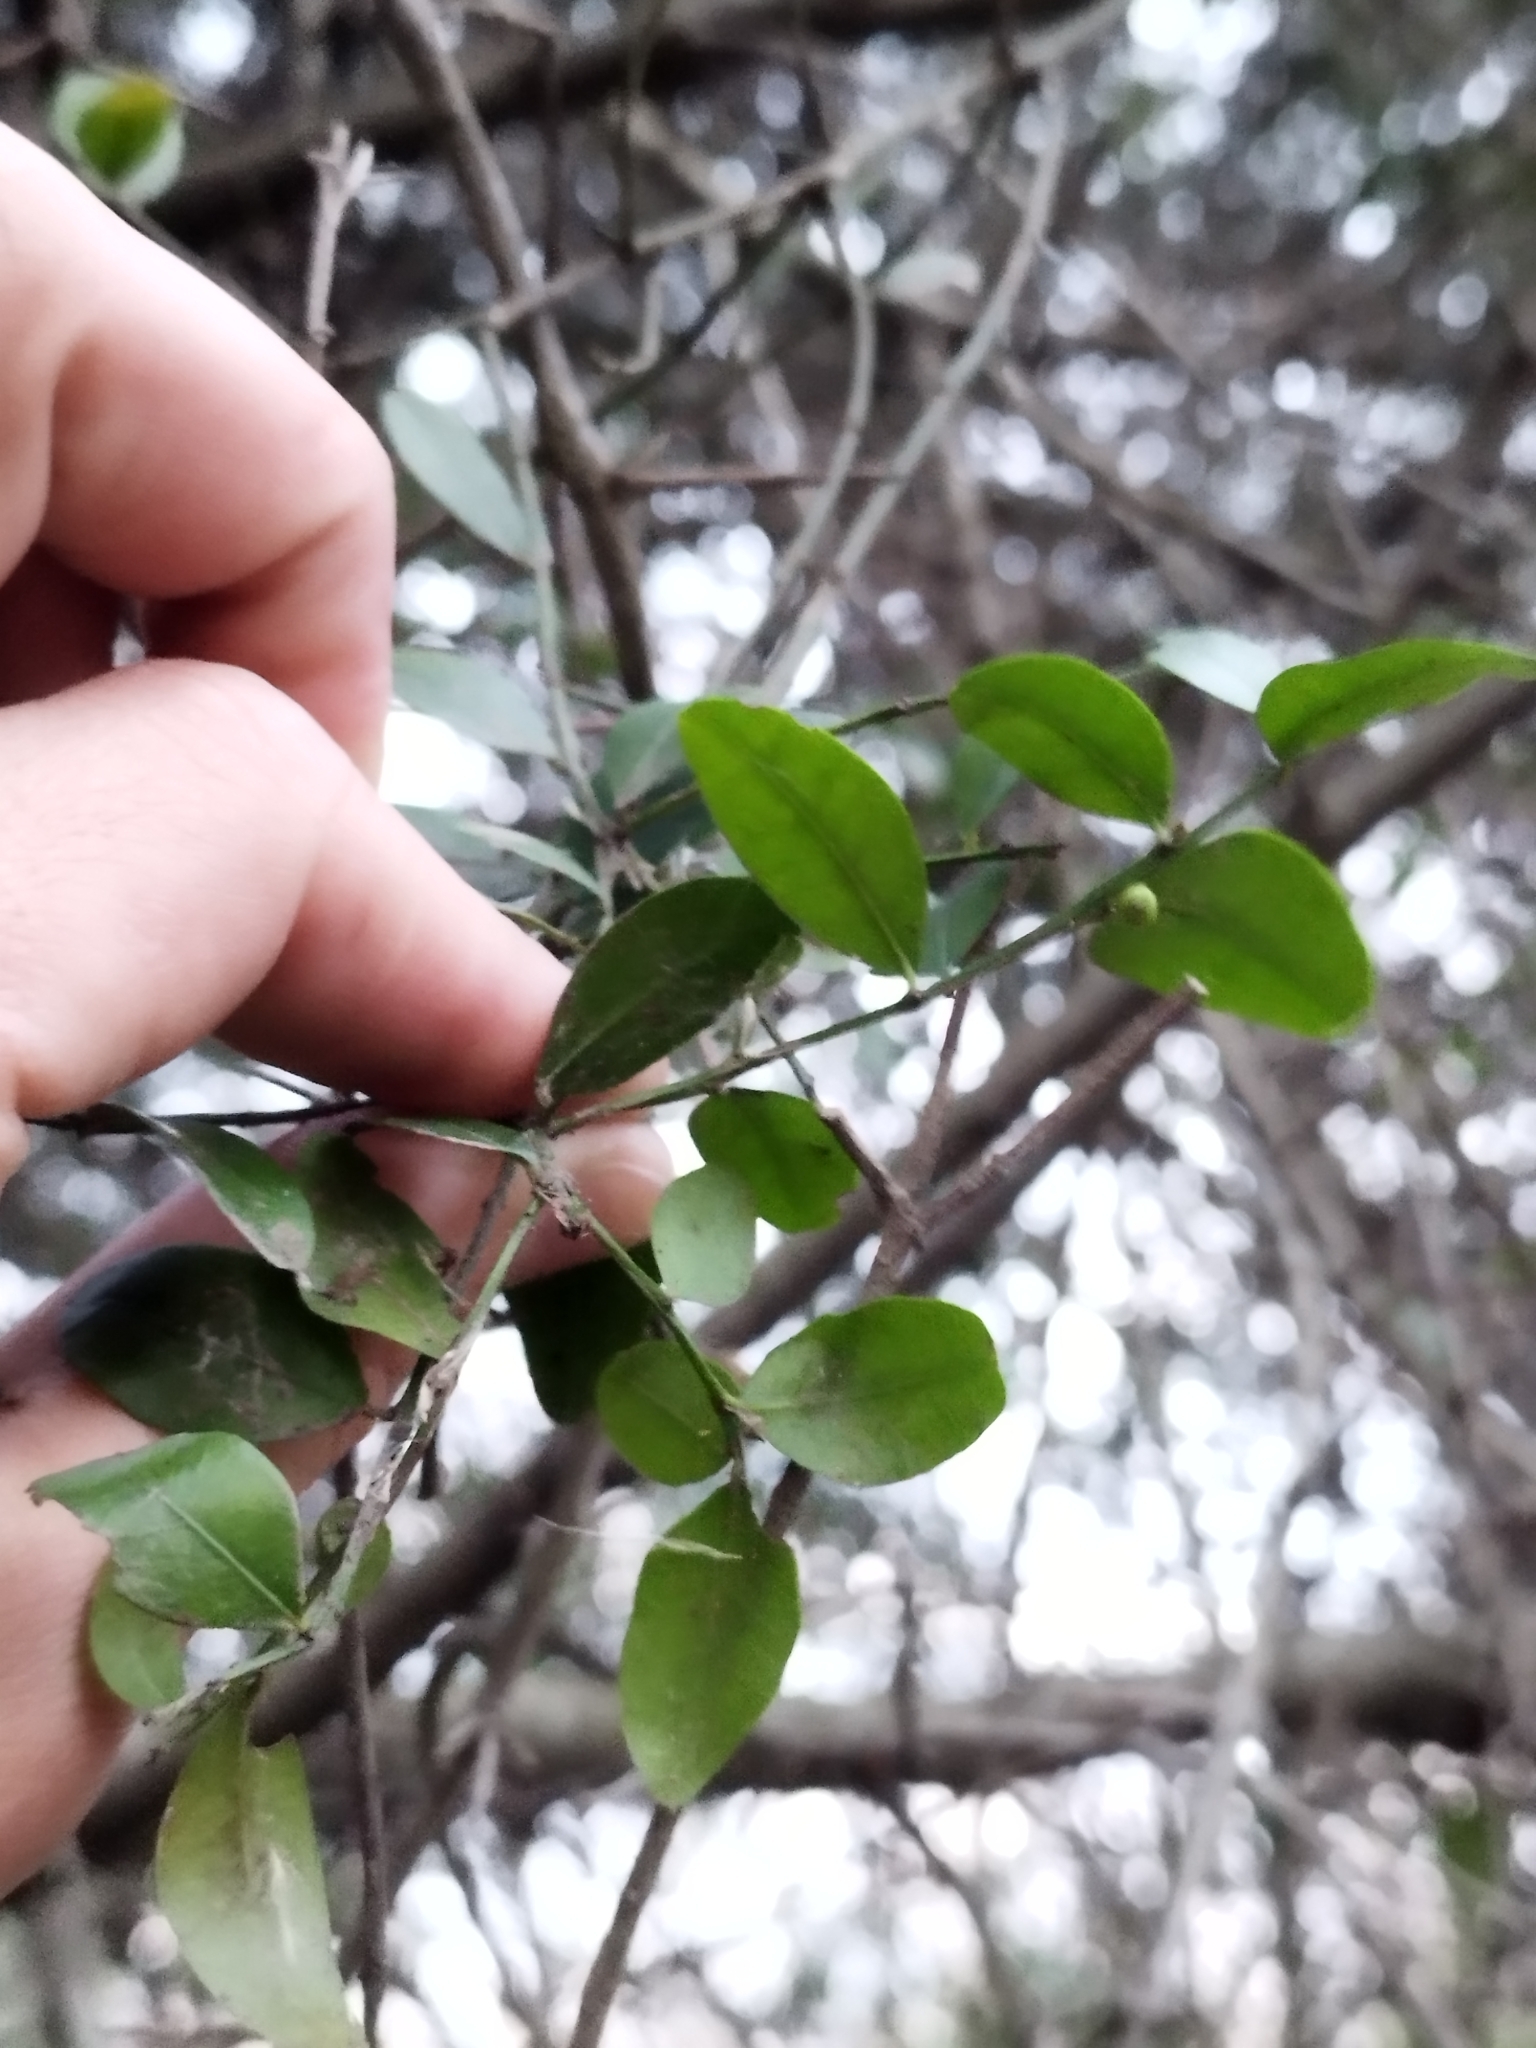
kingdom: Plantae
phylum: Tracheophyta
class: Magnoliopsida
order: Rosales
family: Rhamnaceae
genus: Scutia
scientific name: Scutia buxifolia
